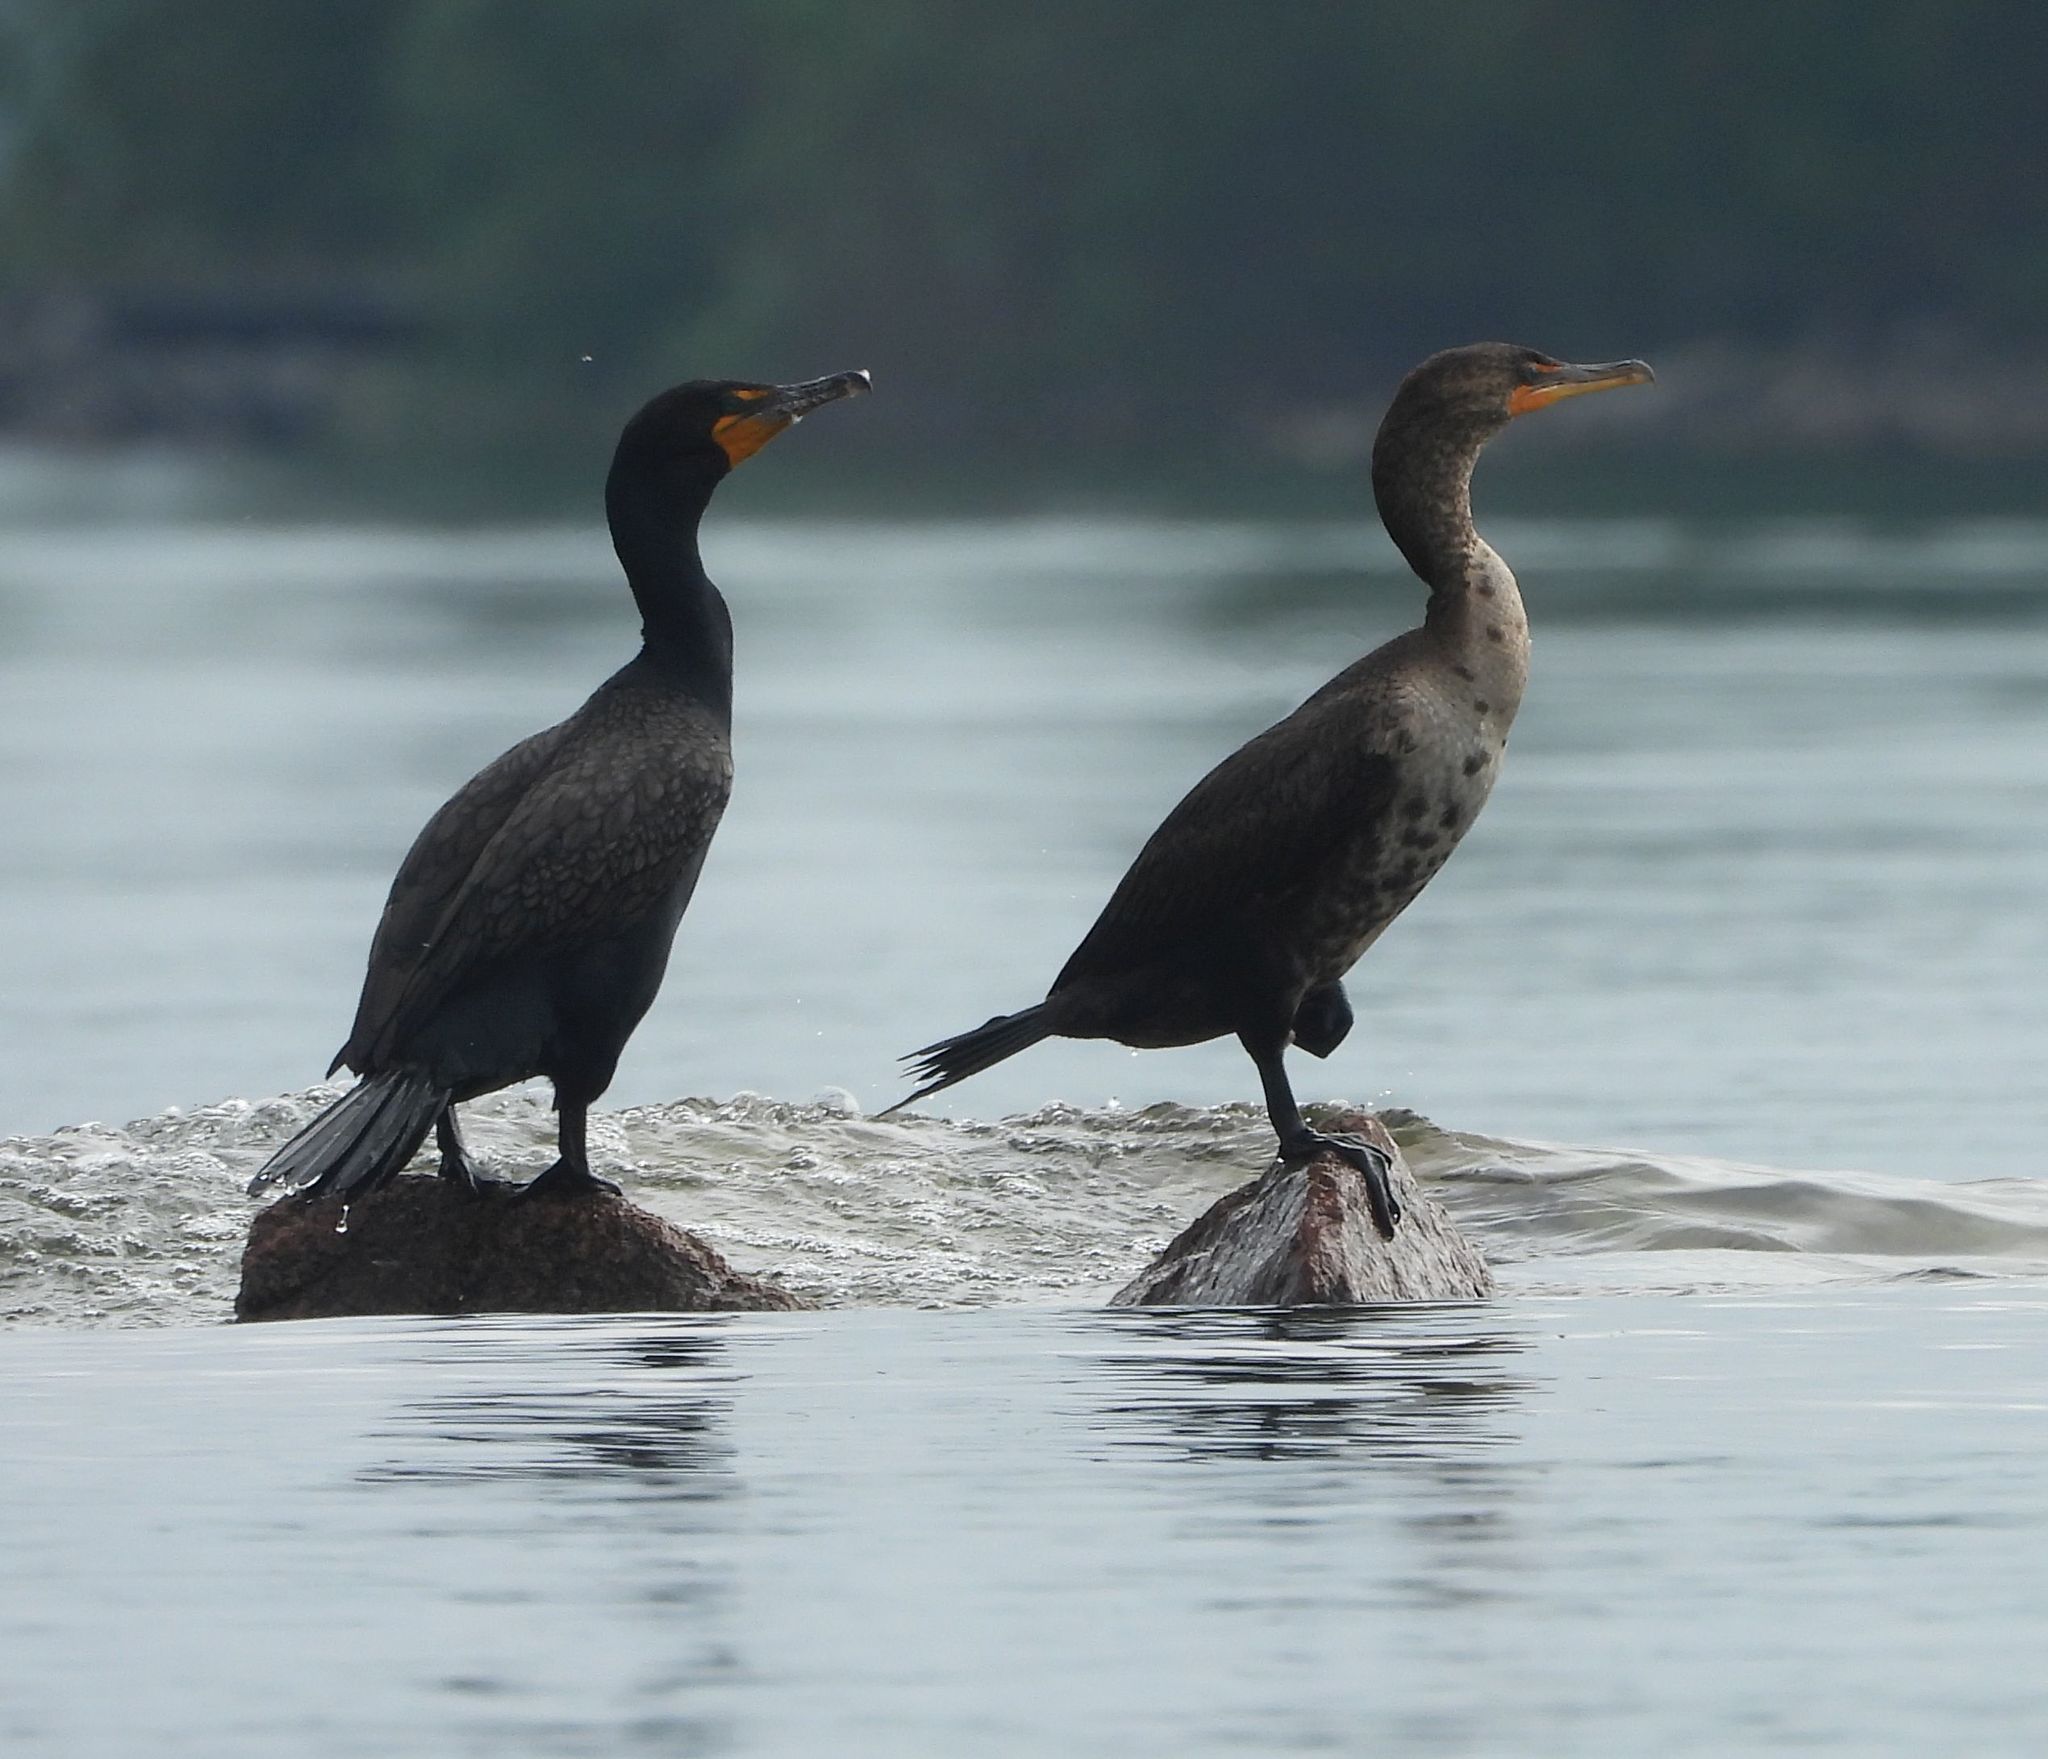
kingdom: Animalia
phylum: Chordata
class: Aves
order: Suliformes
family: Phalacrocoracidae
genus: Phalacrocorax
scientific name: Phalacrocorax auritus
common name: Double-crested cormorant
